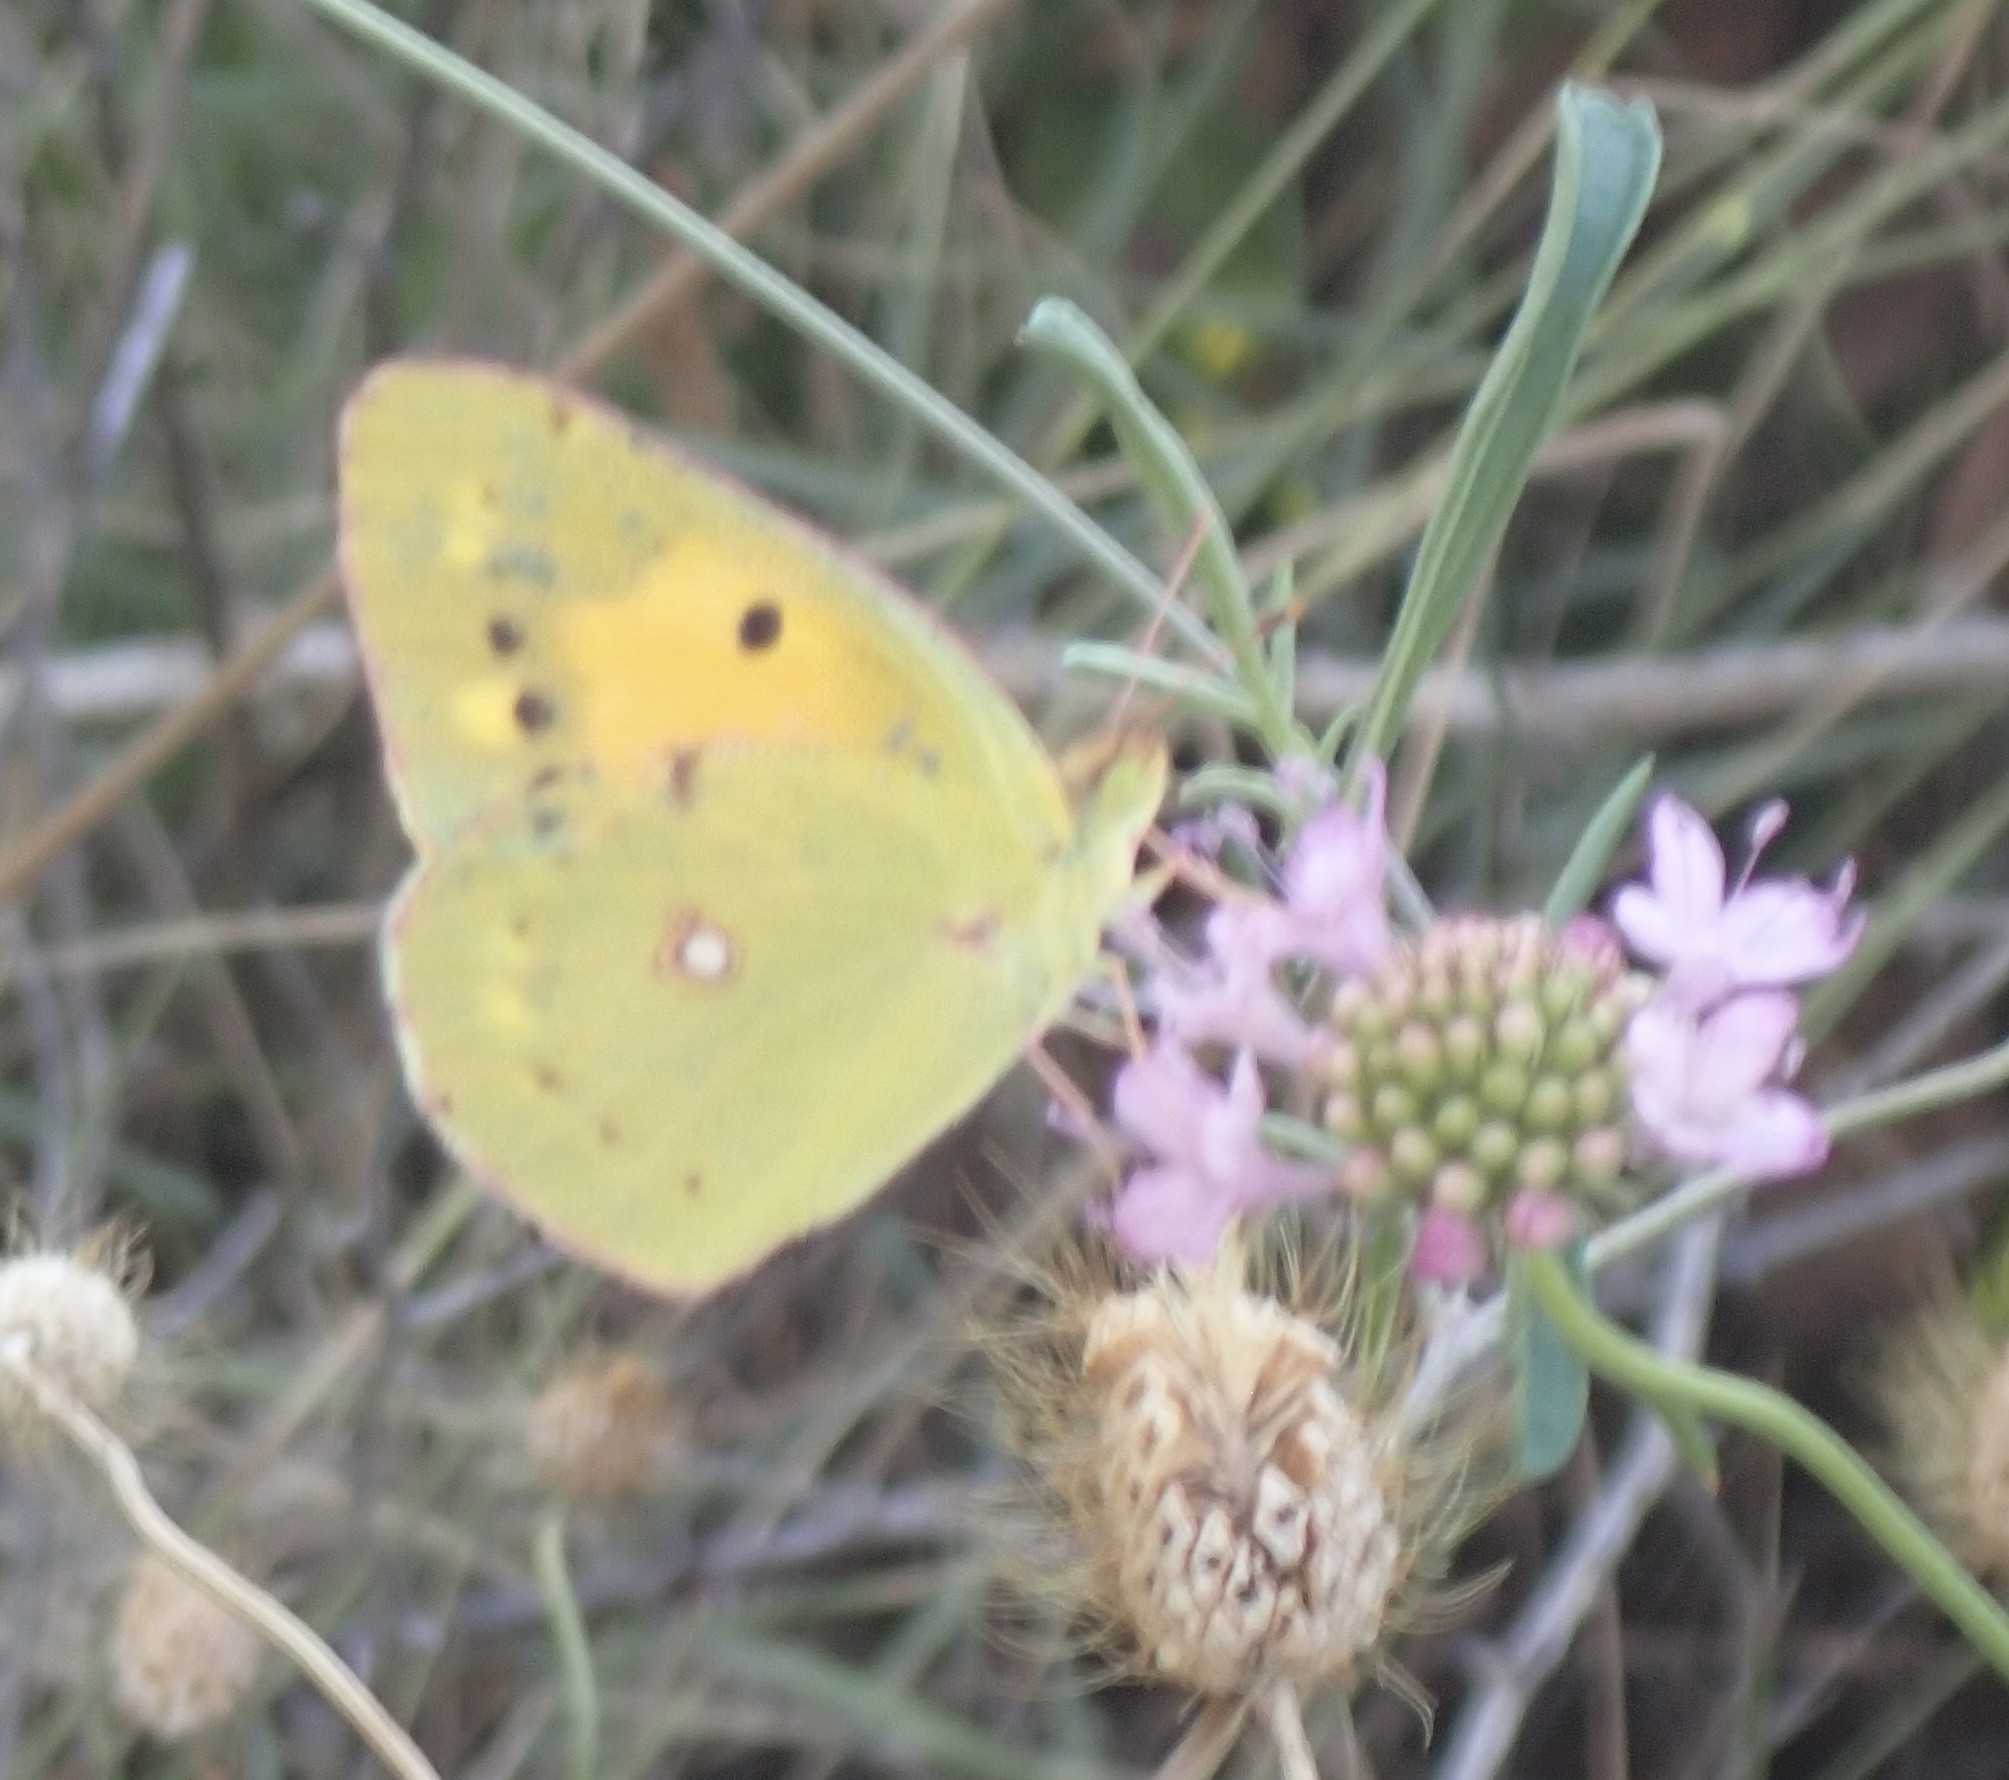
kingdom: Animalia
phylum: Arthropoda
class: Insecta
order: Lepidoptera
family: Pieridae
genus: Colias
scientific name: Colias croceus
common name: Clouded yellow
